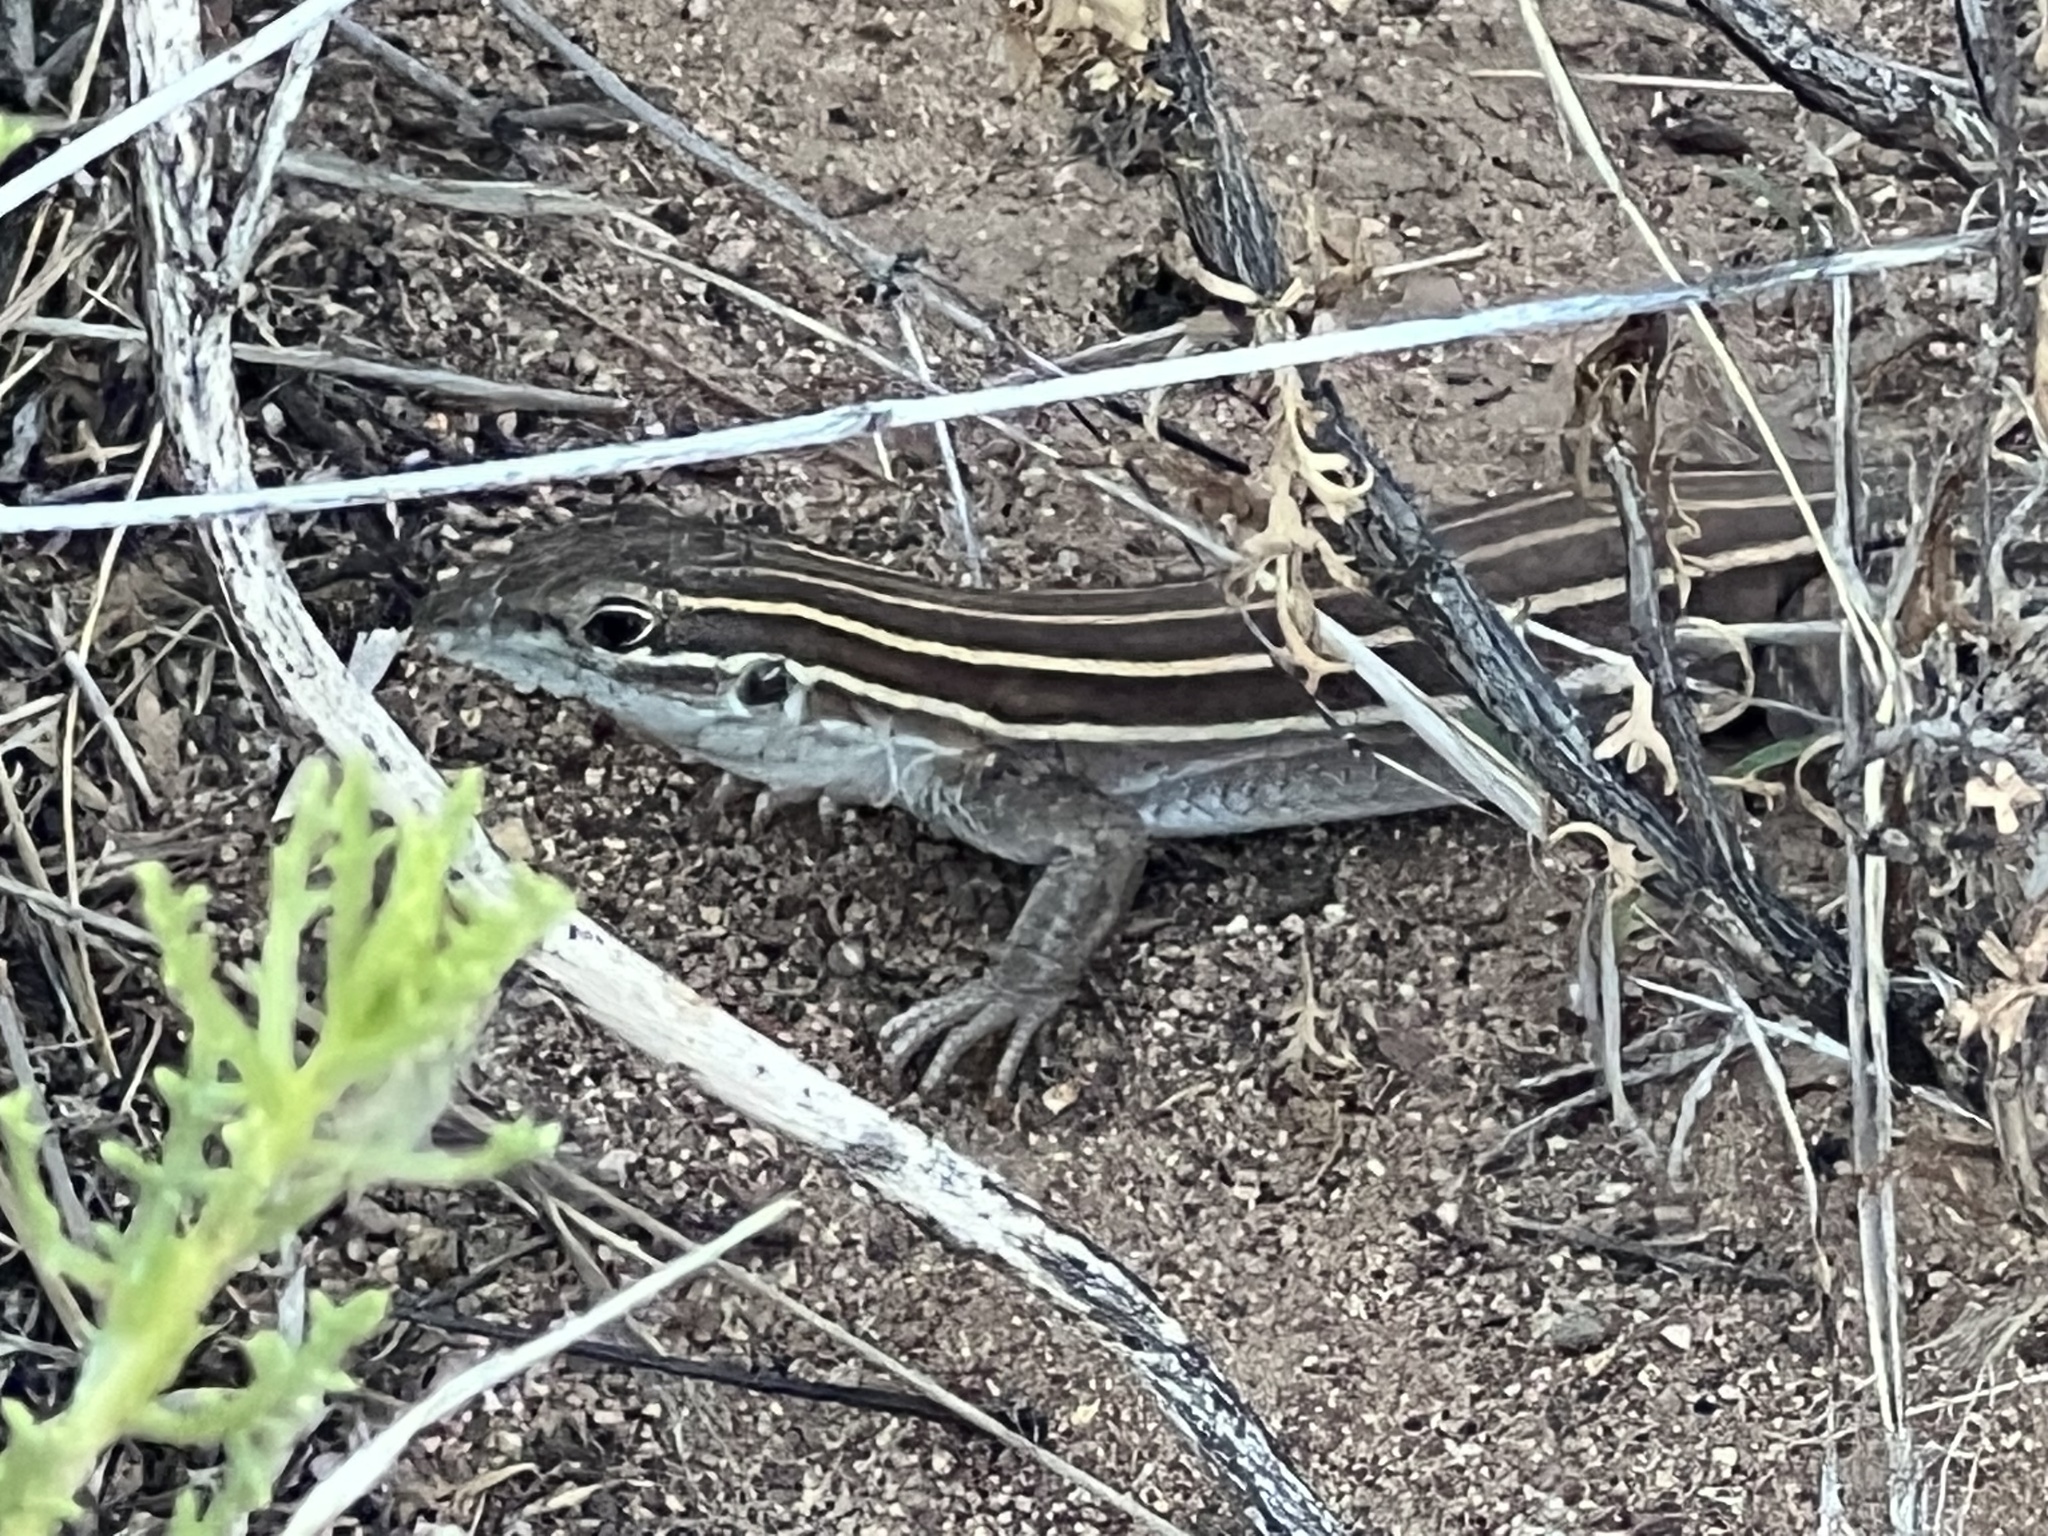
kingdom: Animalia
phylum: Chordata
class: Squamata
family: Teiidae
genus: Aspidoscelis
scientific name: Aspidoscelis uniparens
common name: Desert grassland whiptail
